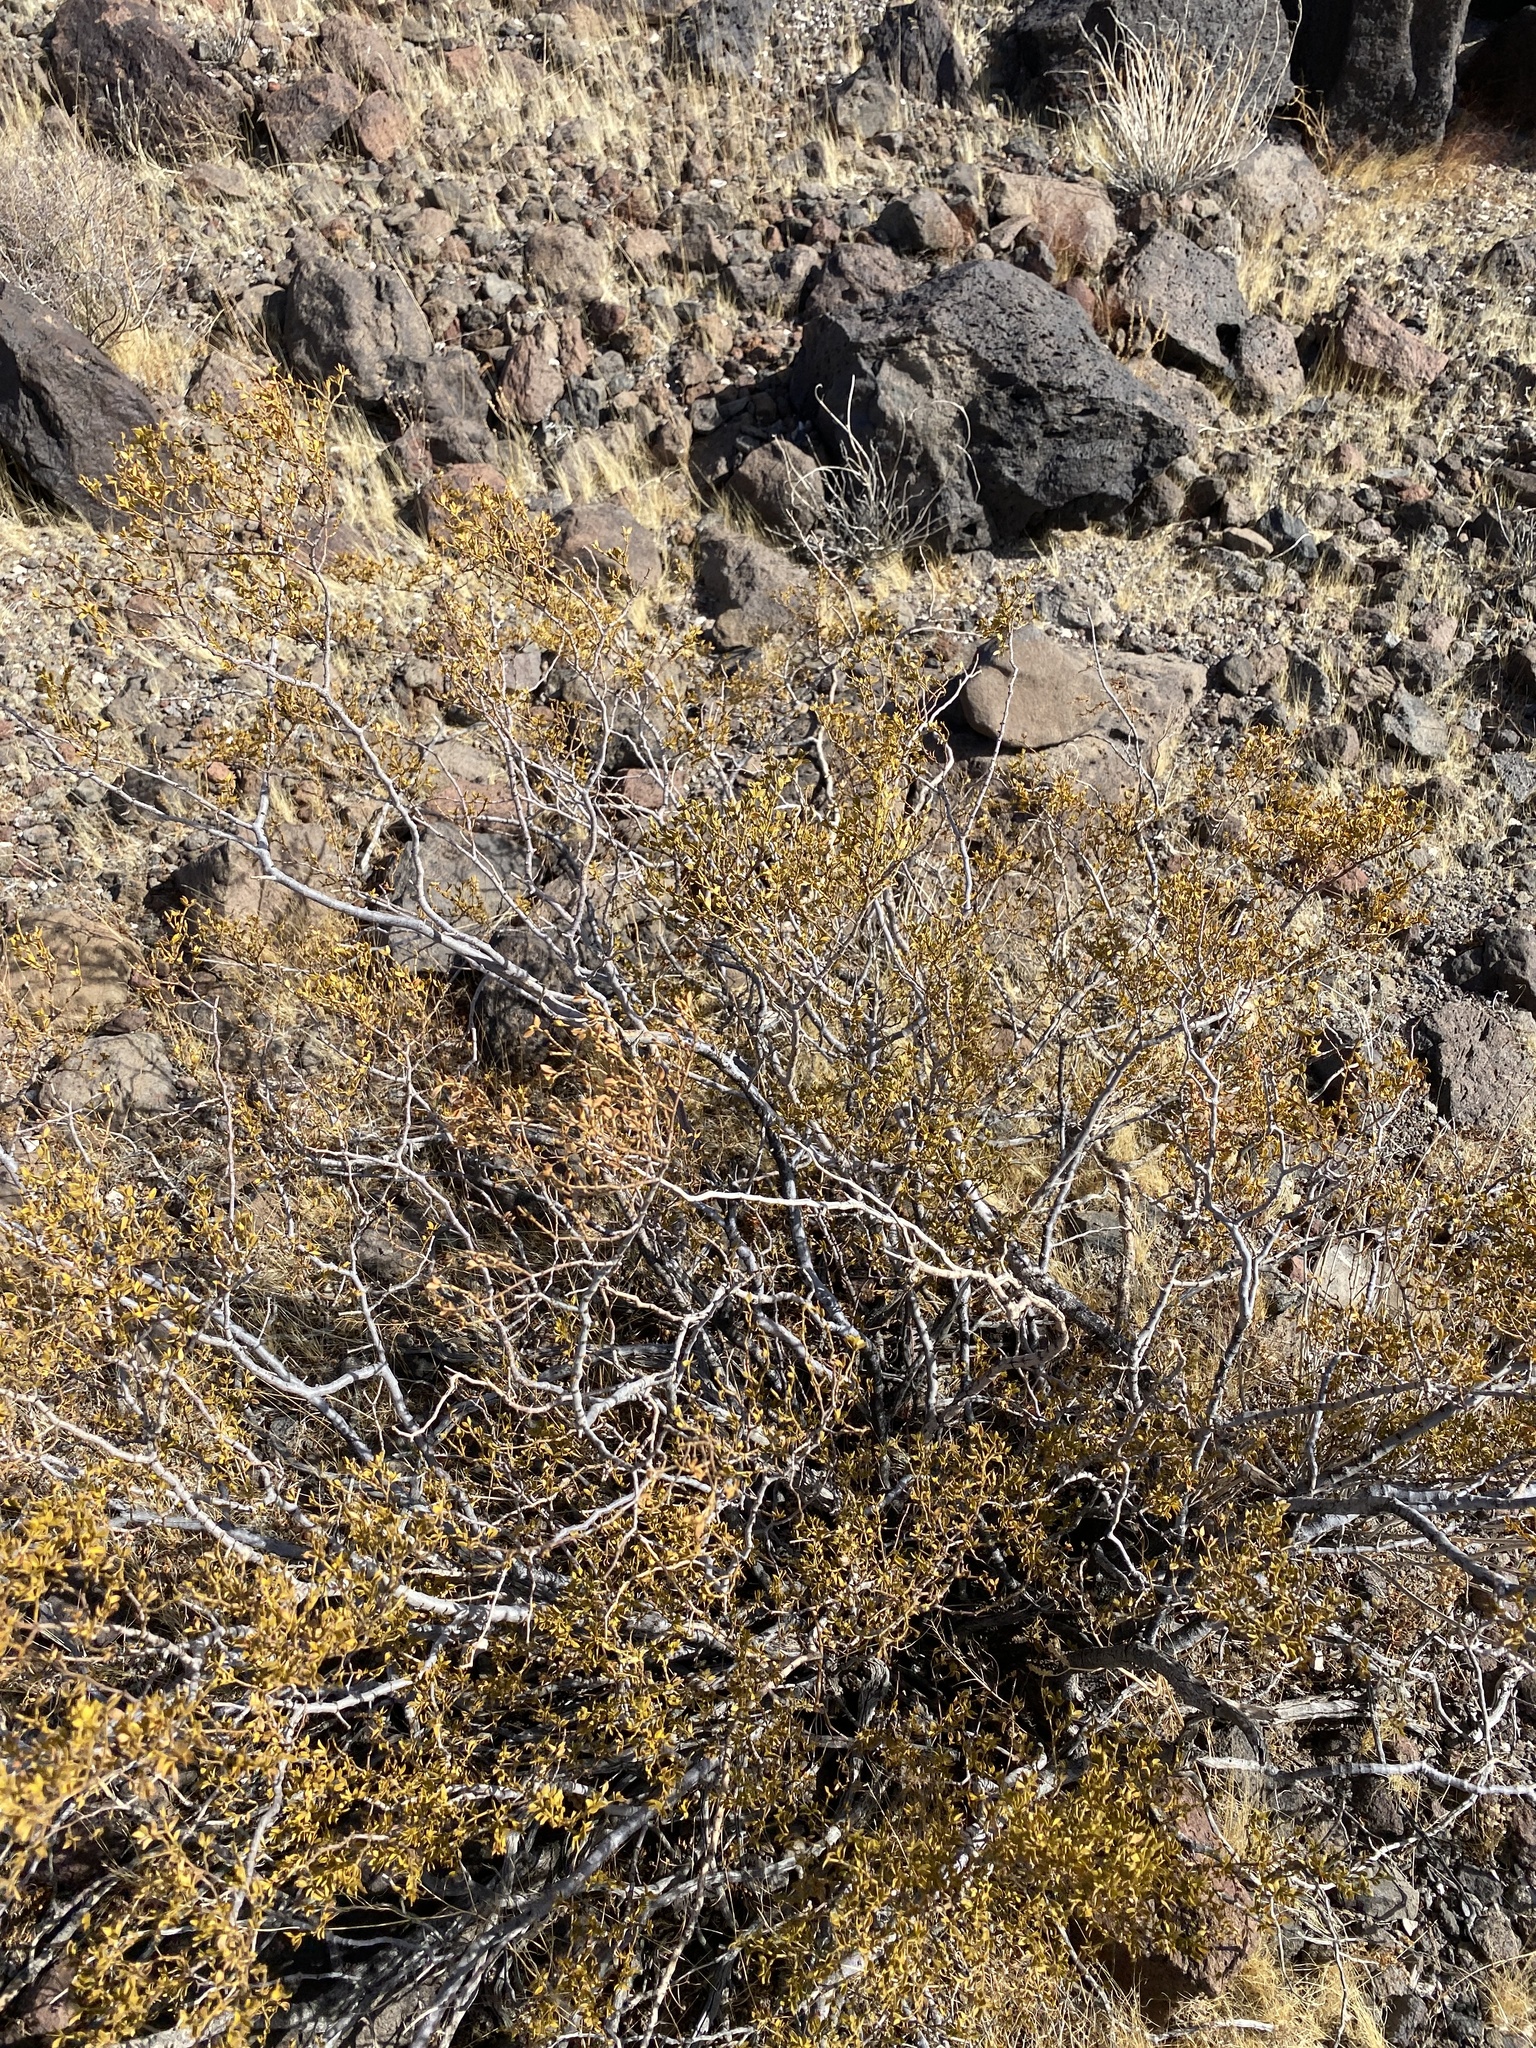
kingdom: Plantae
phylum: Tracheophyta
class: Magnoliopsida
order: Zygophyllales
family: Zygophyllaceae
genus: Larrea
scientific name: Larrea tridentata
